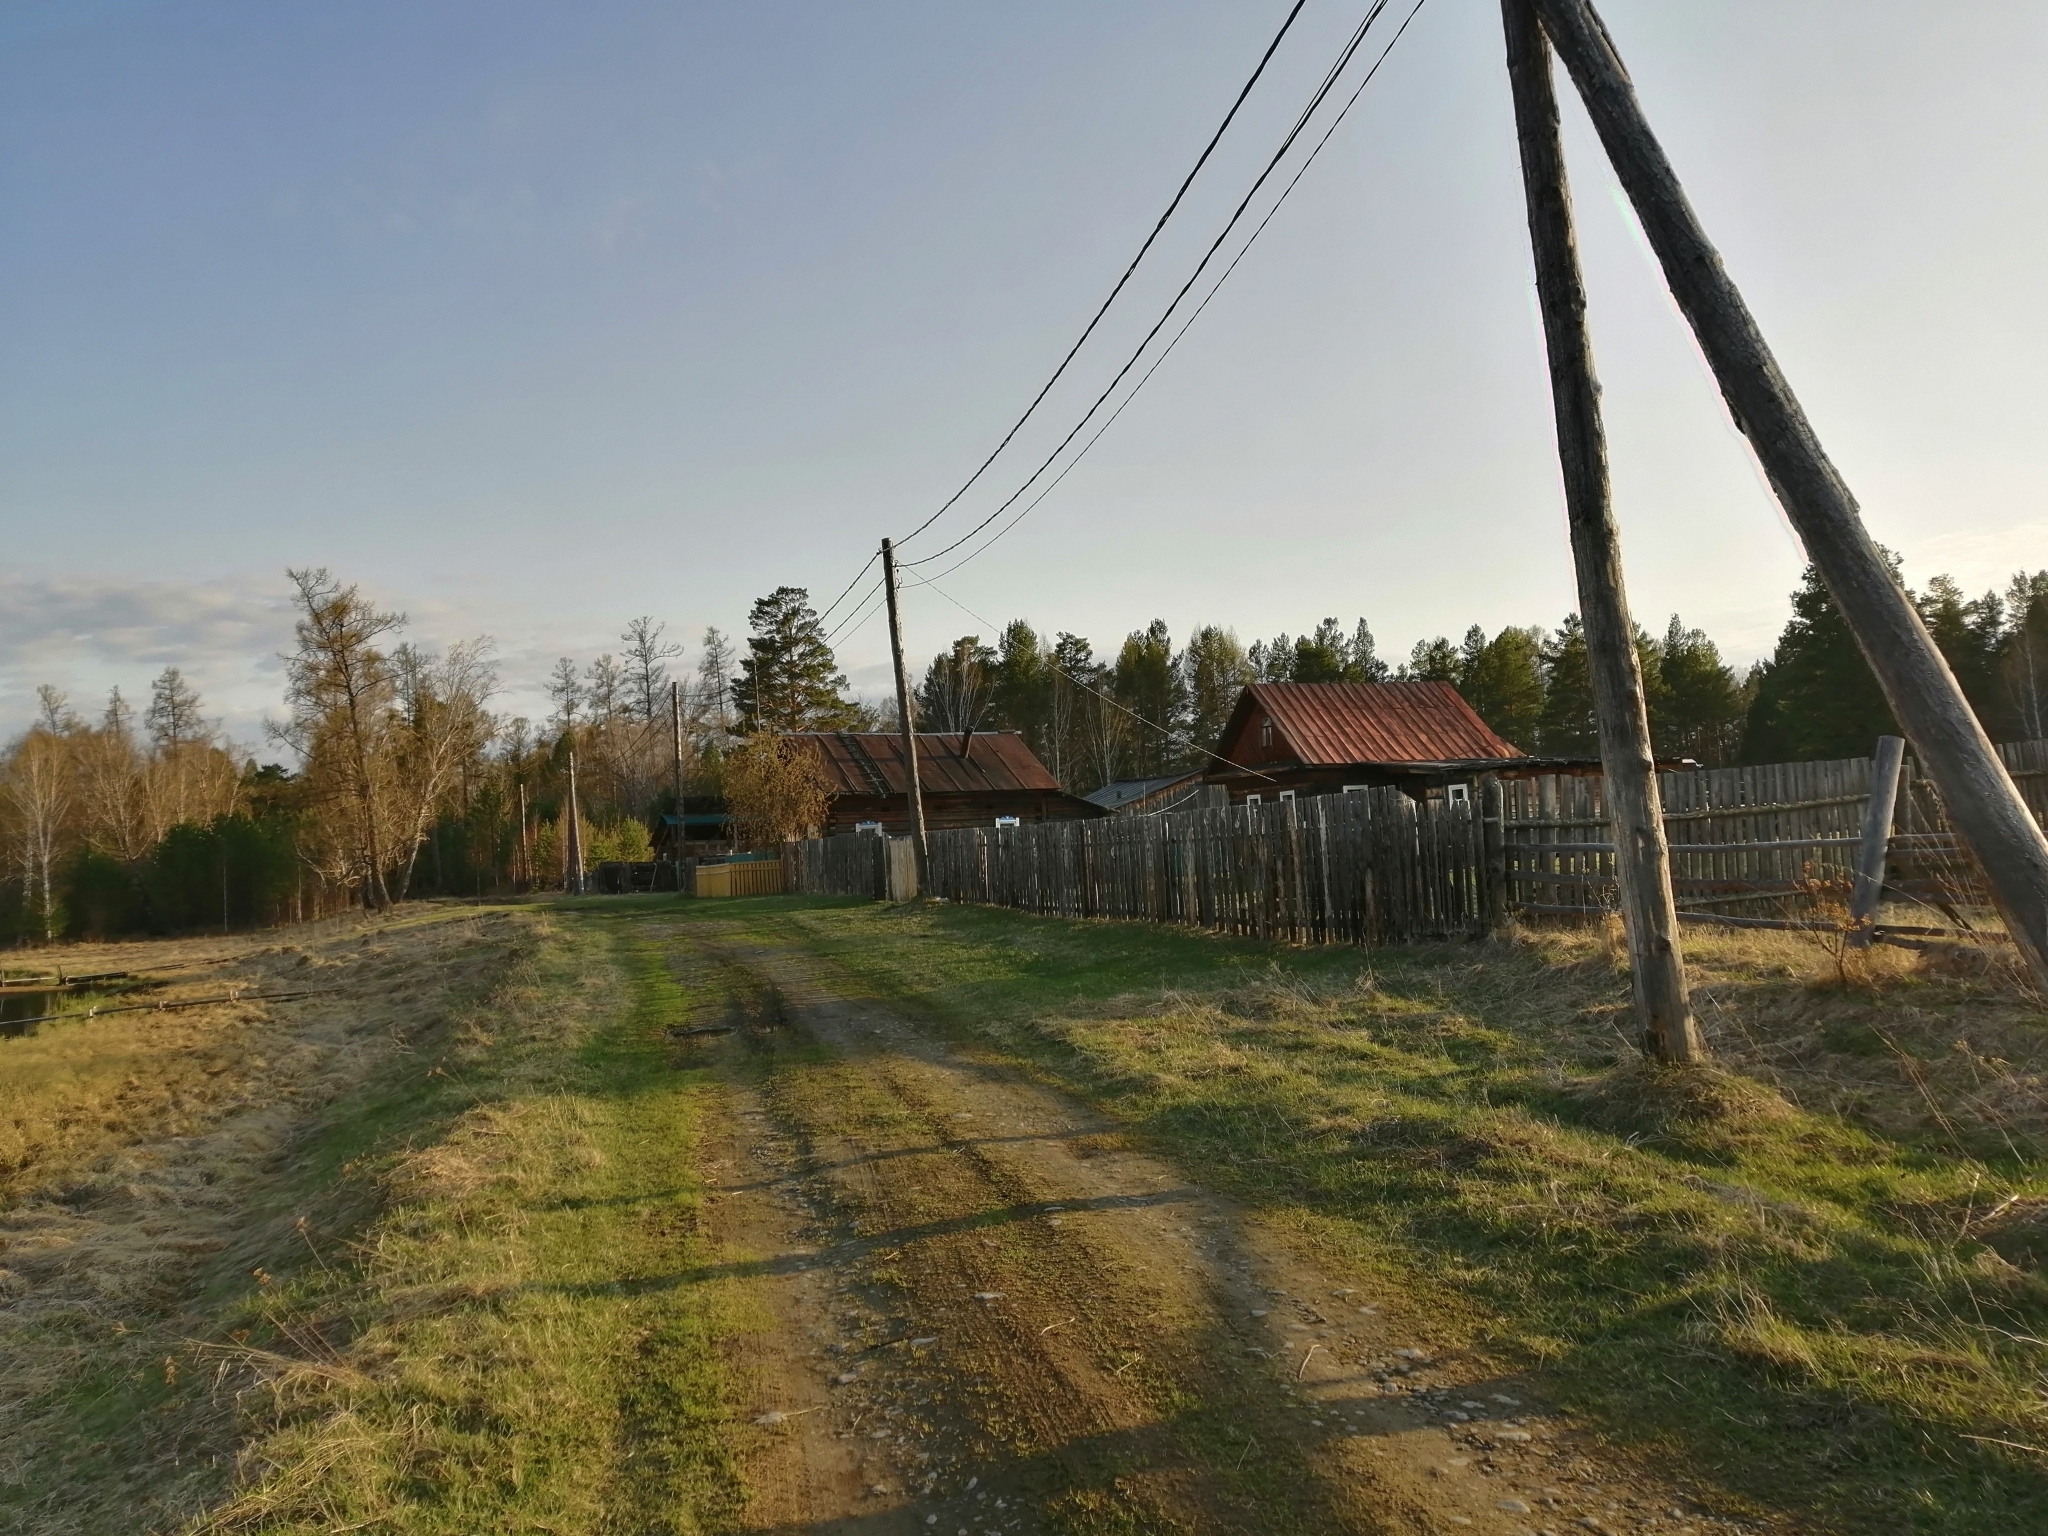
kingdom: Plantae
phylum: Tracheophyta
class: Pinopsida
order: Pinales
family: Pinaceae
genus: Pinus
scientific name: Pinus sylvestris
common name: Scots pine
